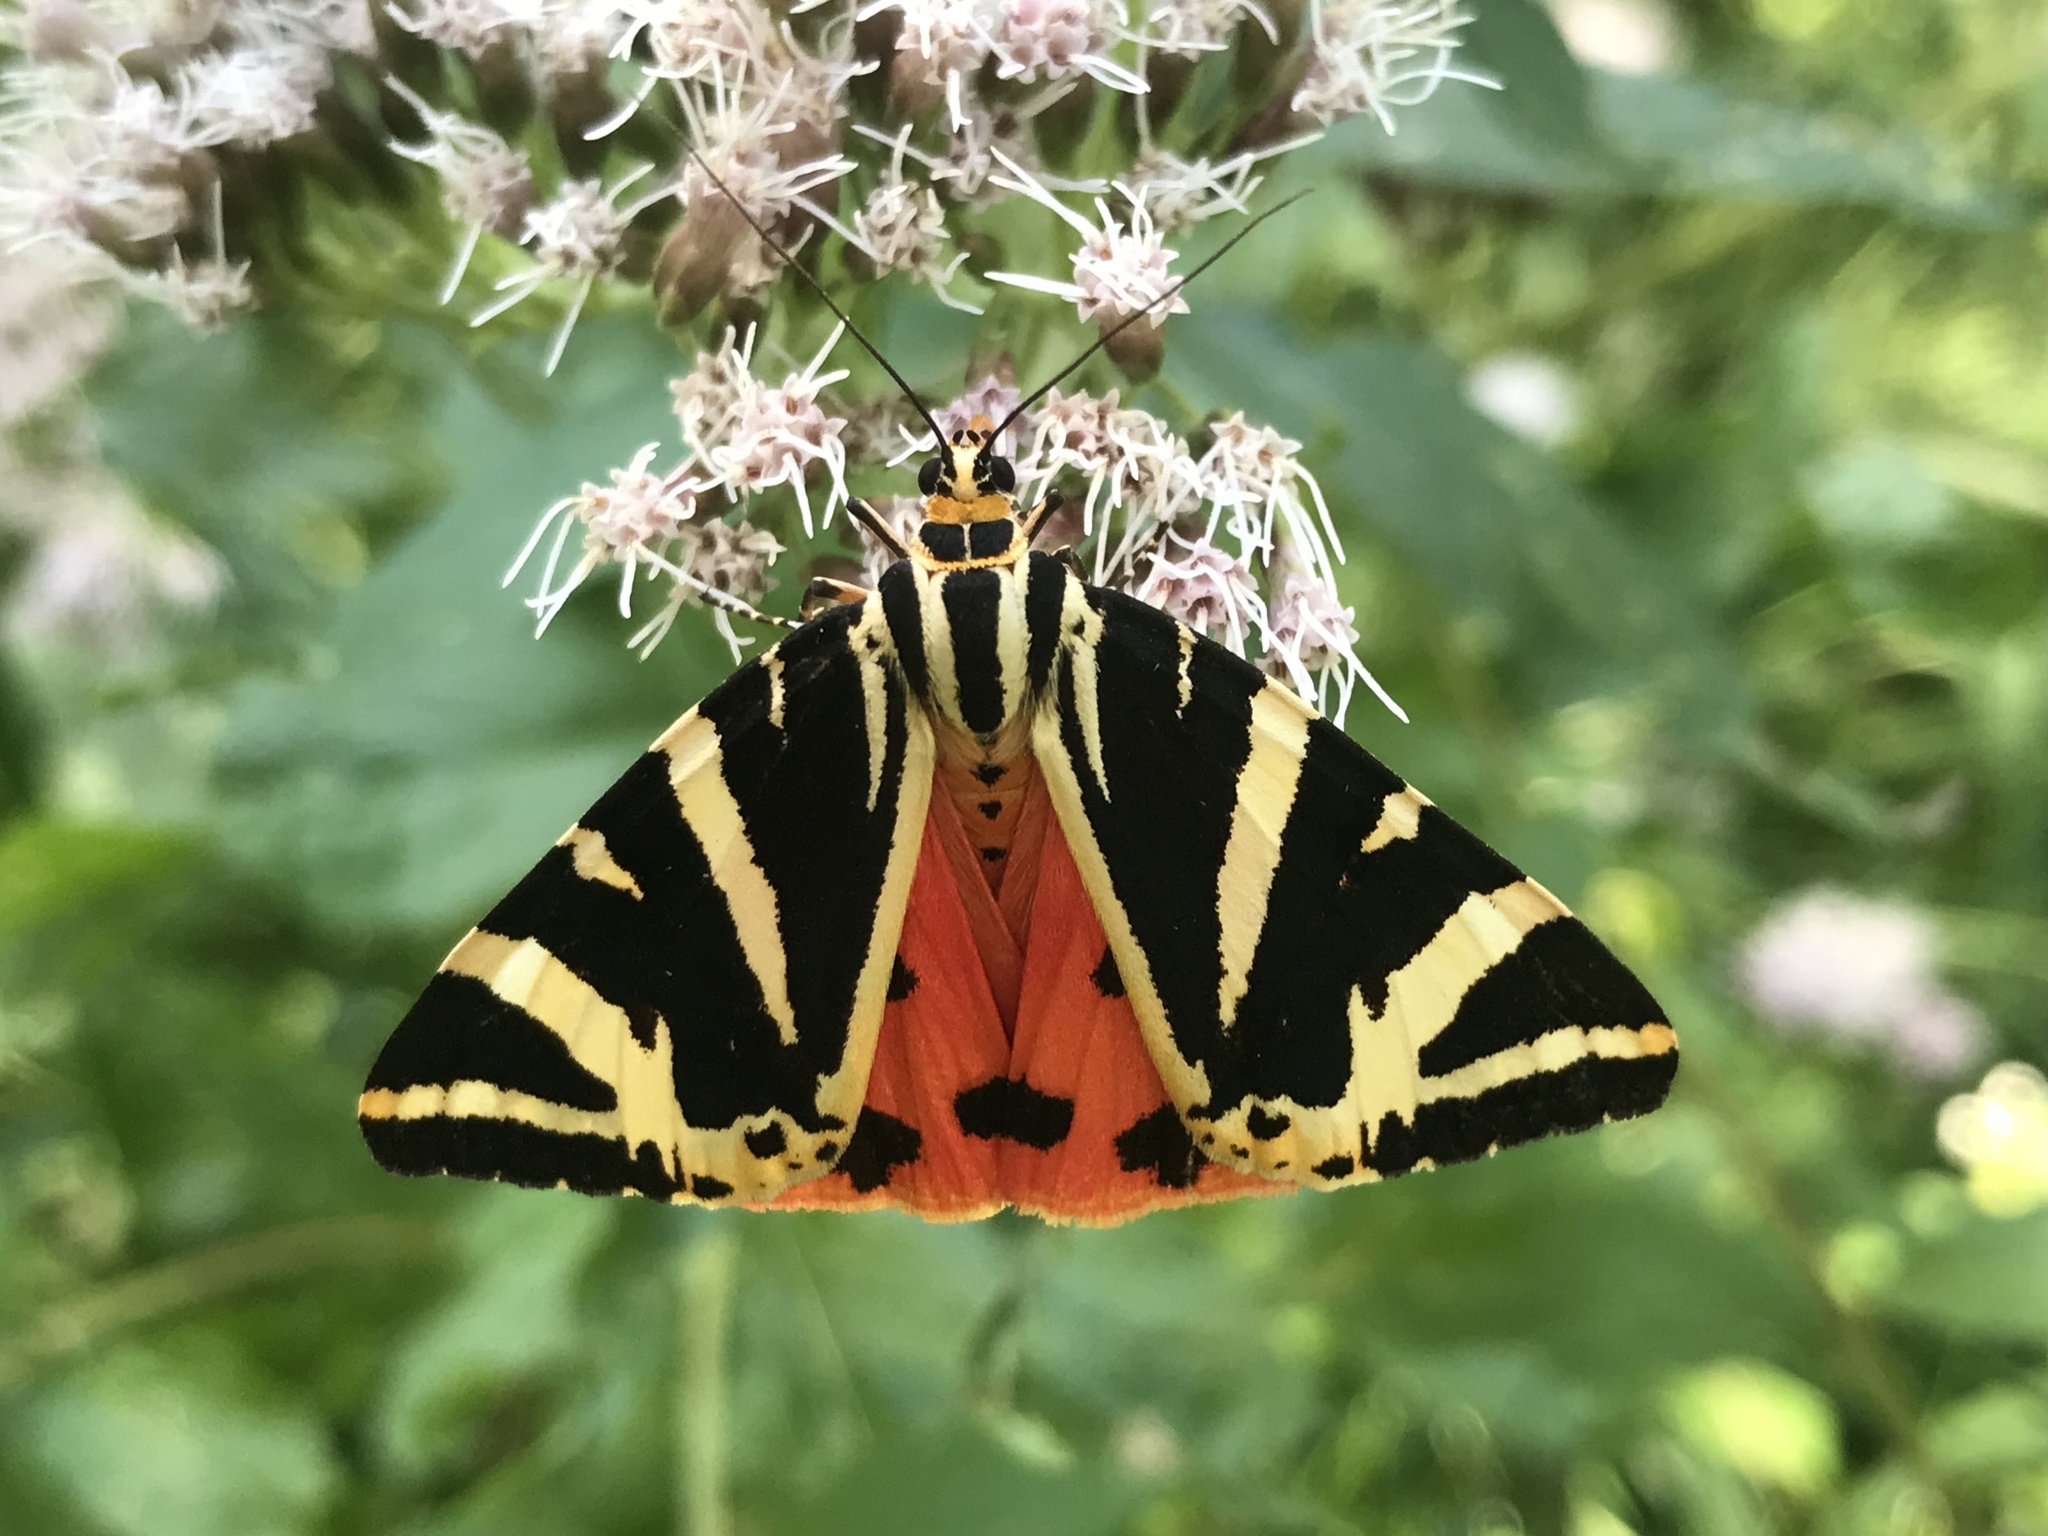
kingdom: Animalia
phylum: Arthropoda
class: Insecta
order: Lepidoptera
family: Erebidae
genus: Euplagia
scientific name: Euplagia quadripunctaria
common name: Jersey tiger
